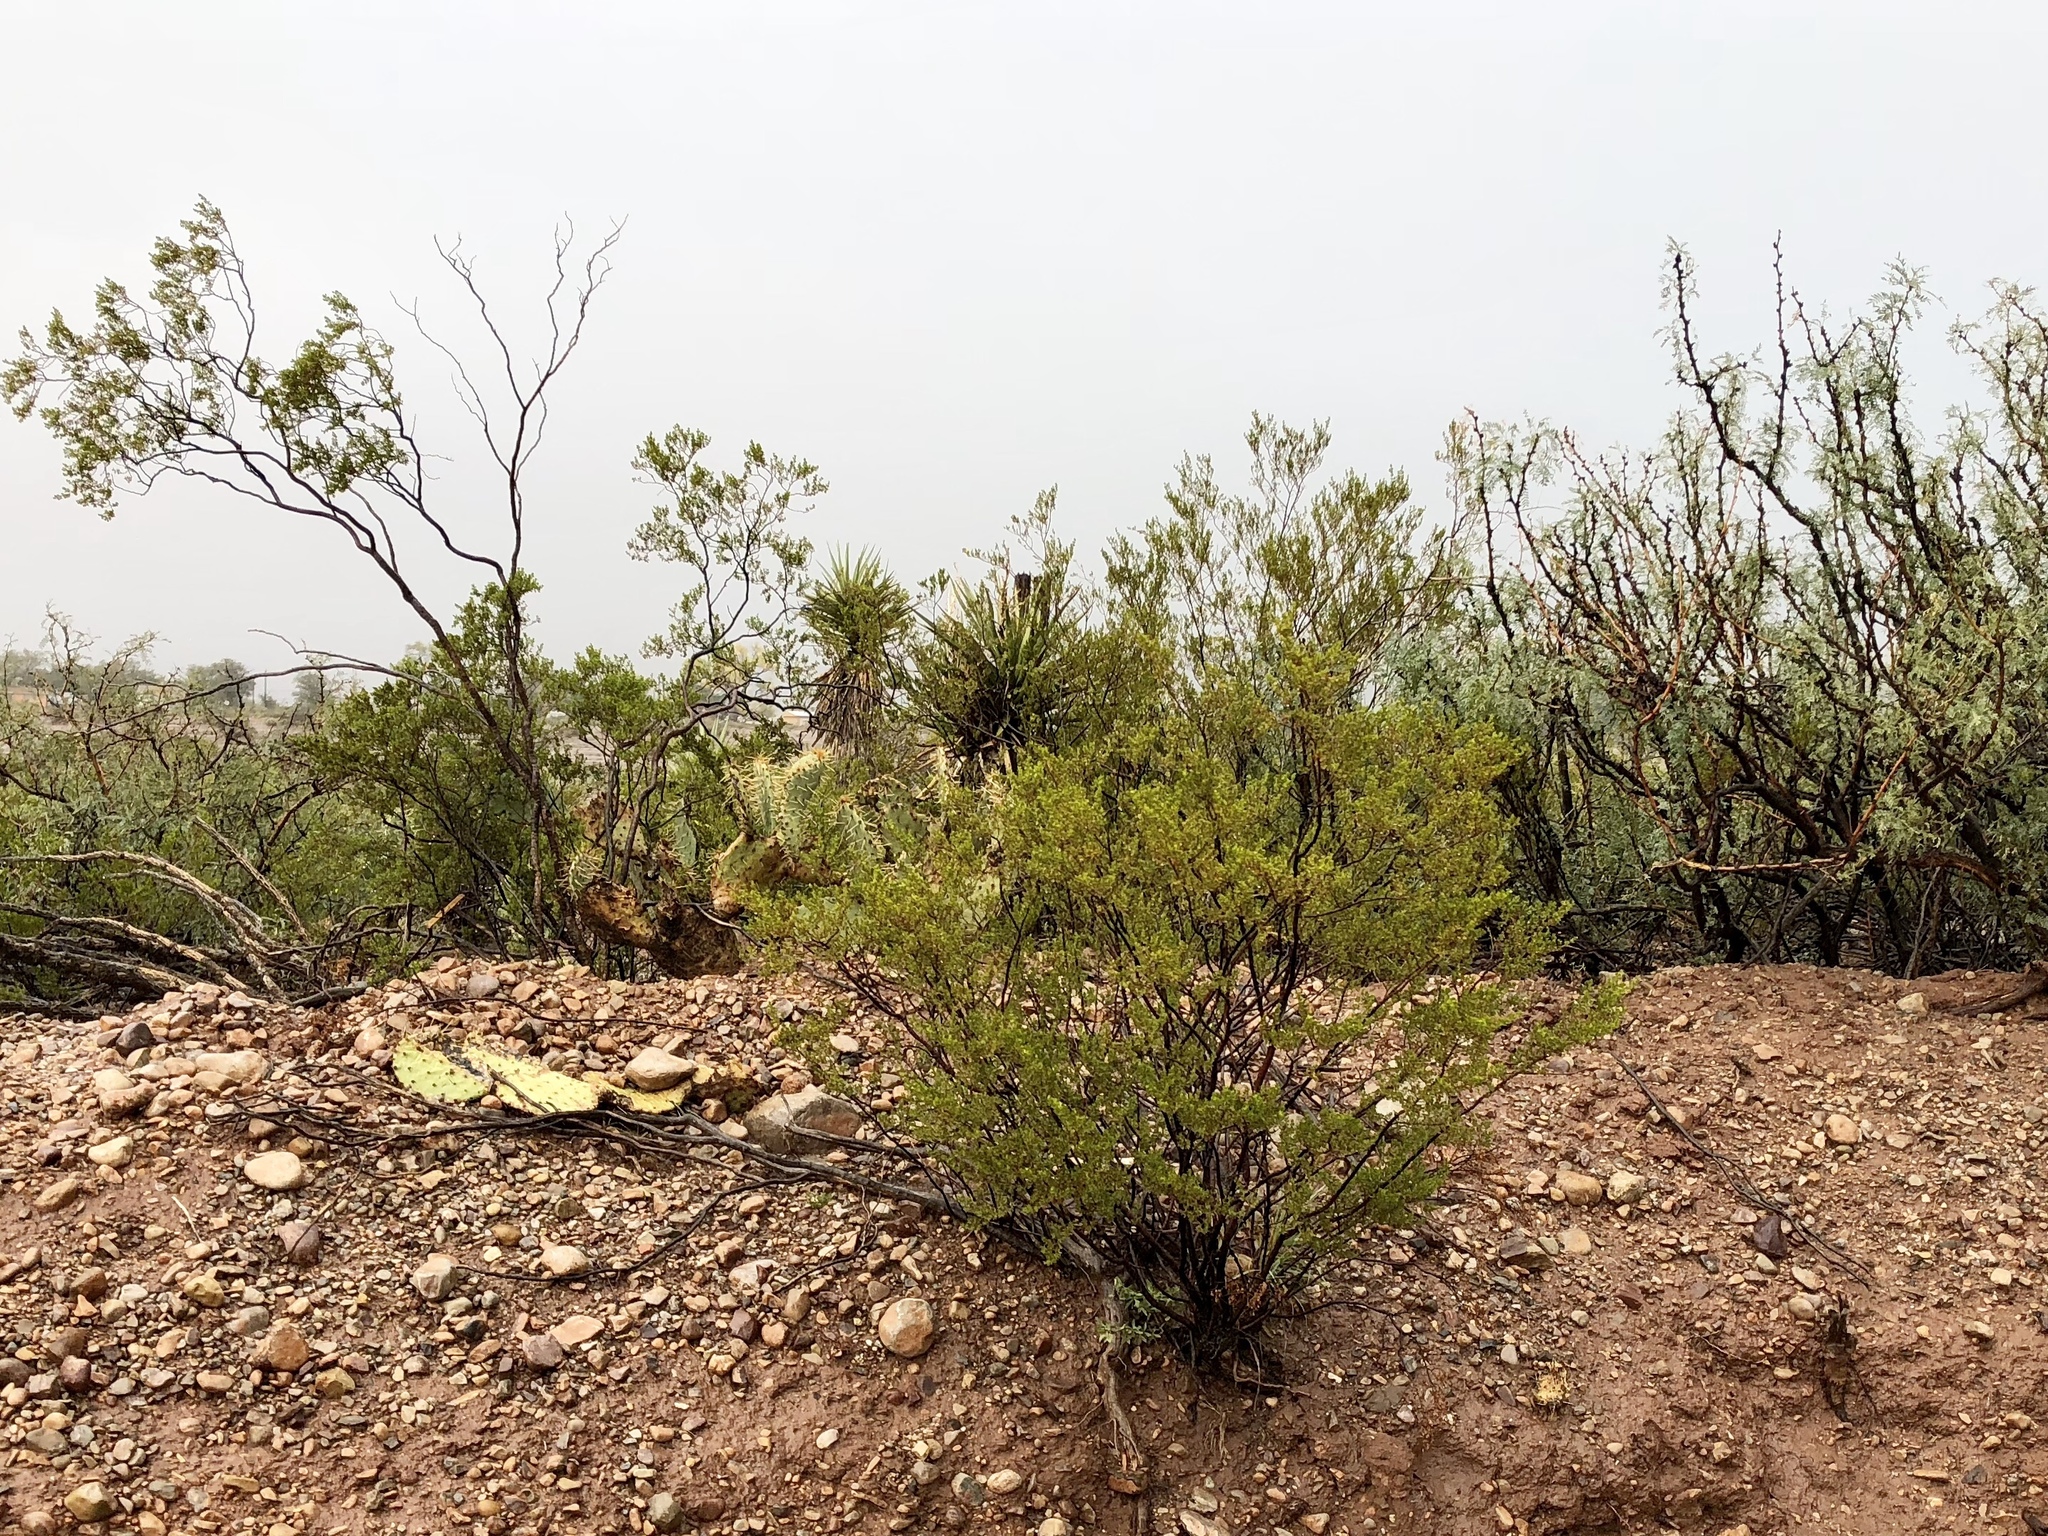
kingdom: Plantae
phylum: Tracheophyta
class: Magnoliopsida
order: Zygophyllales
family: Zygophyllaceae
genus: Larrea
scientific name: Larrea tridentata
